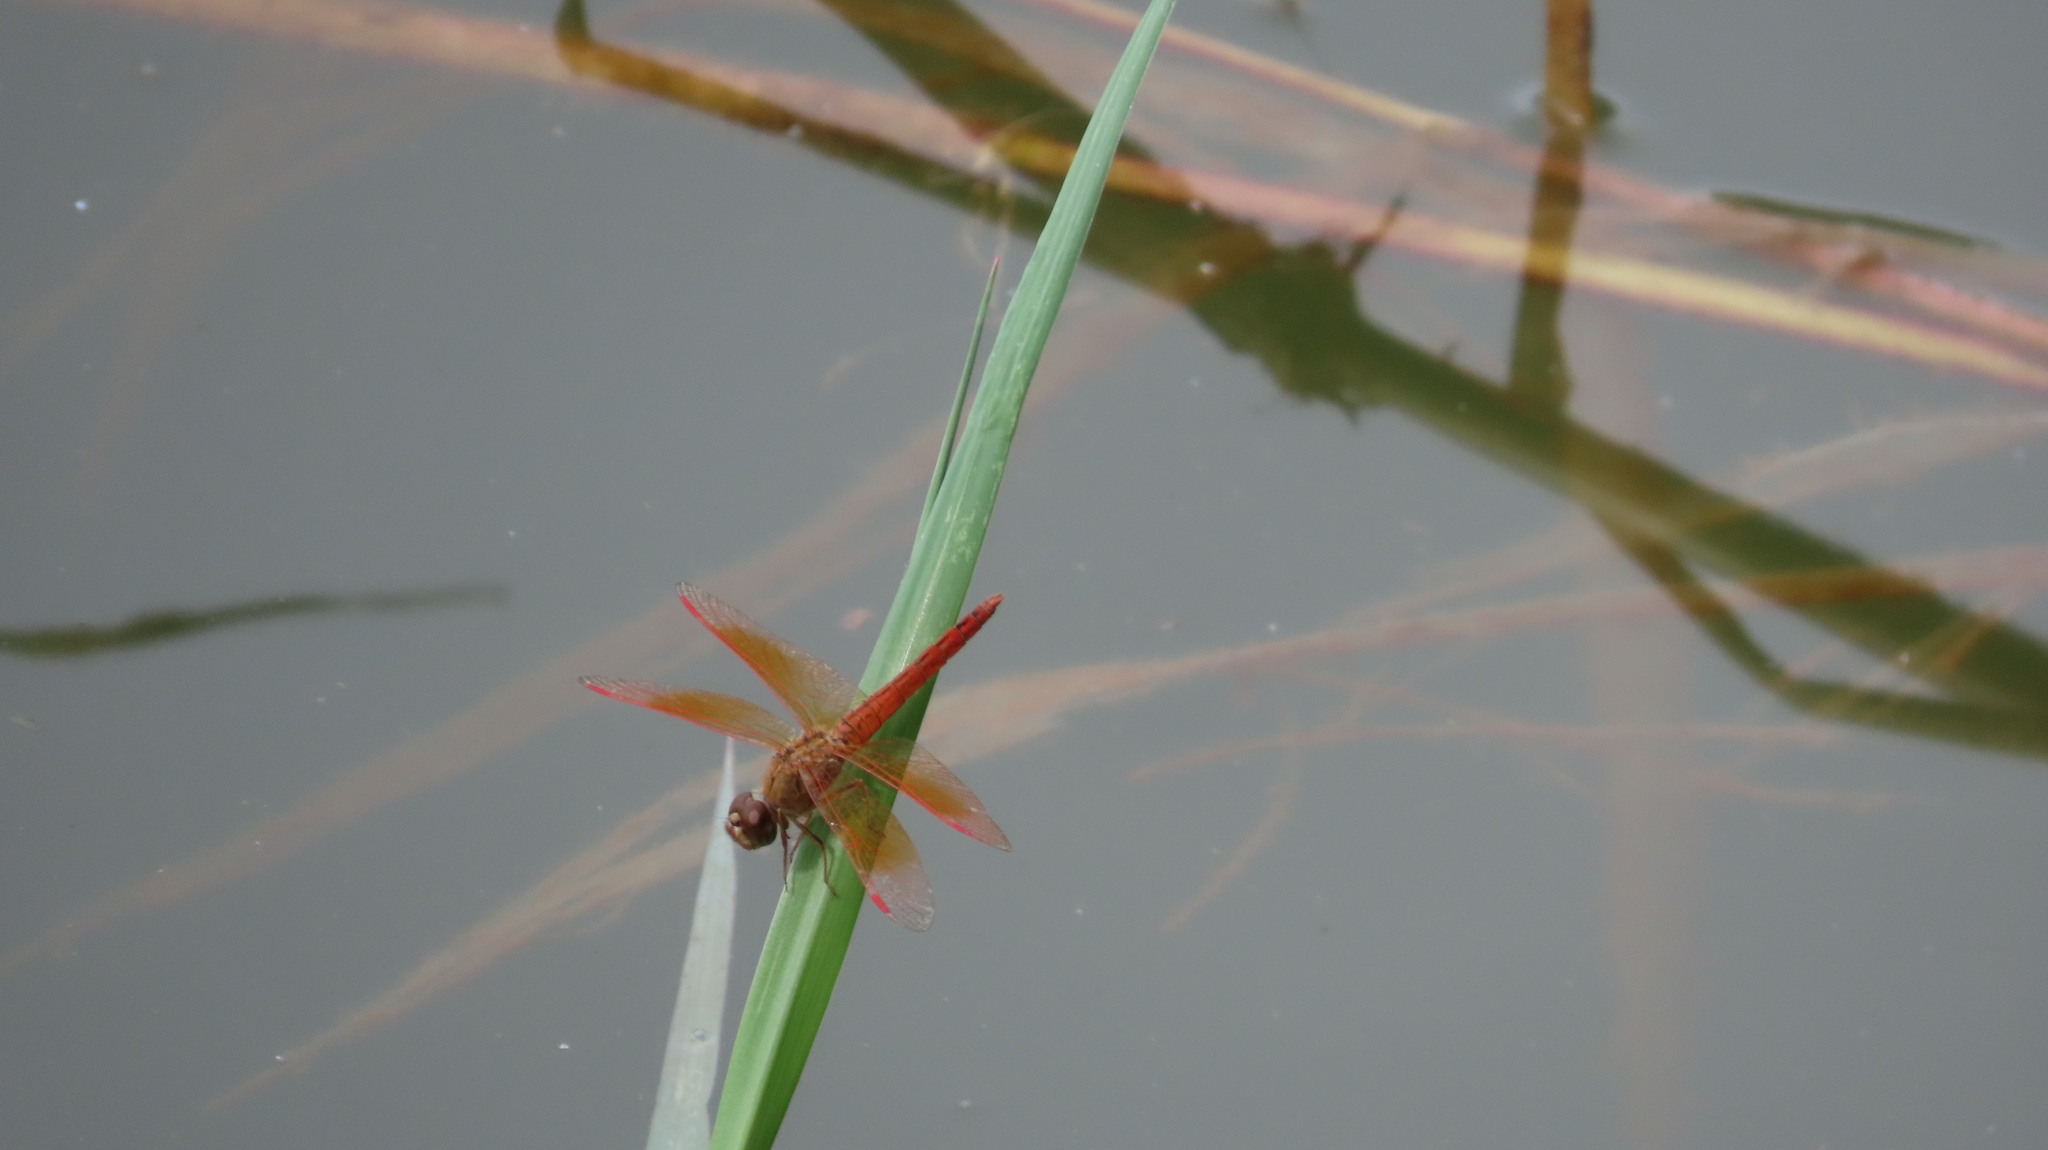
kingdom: Animalia
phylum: Arthropoda
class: Insecta
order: Odonata
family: Libellulidae
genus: Brachythemis
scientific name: Brachythemis contaminata
